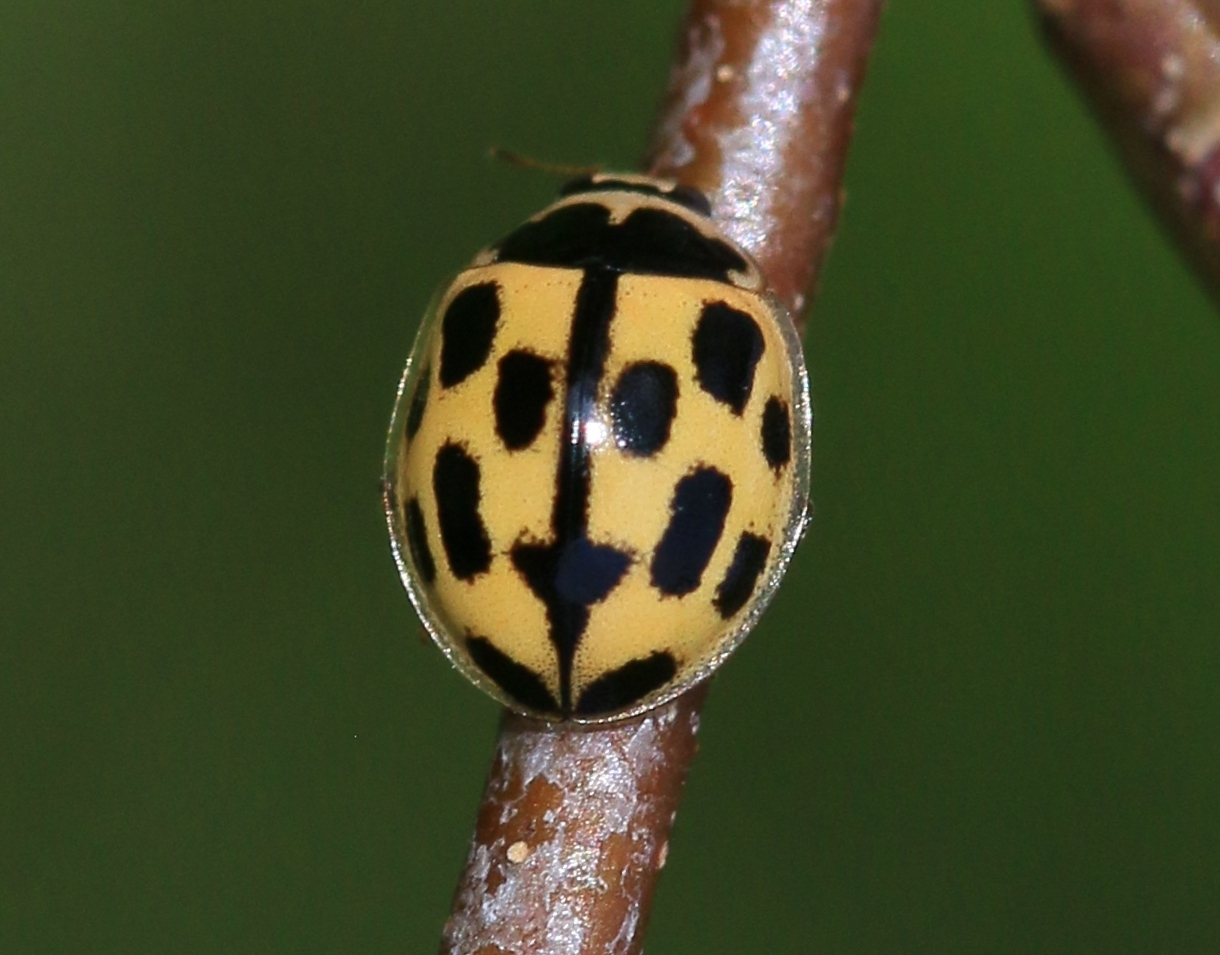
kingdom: Animalia
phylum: Arthropoda
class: Insecta
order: Coleoptera
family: Coccinellidae
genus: Propylaea
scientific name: Propylaea quatuordecimpunctata
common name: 14-spotted ladybird beetle
